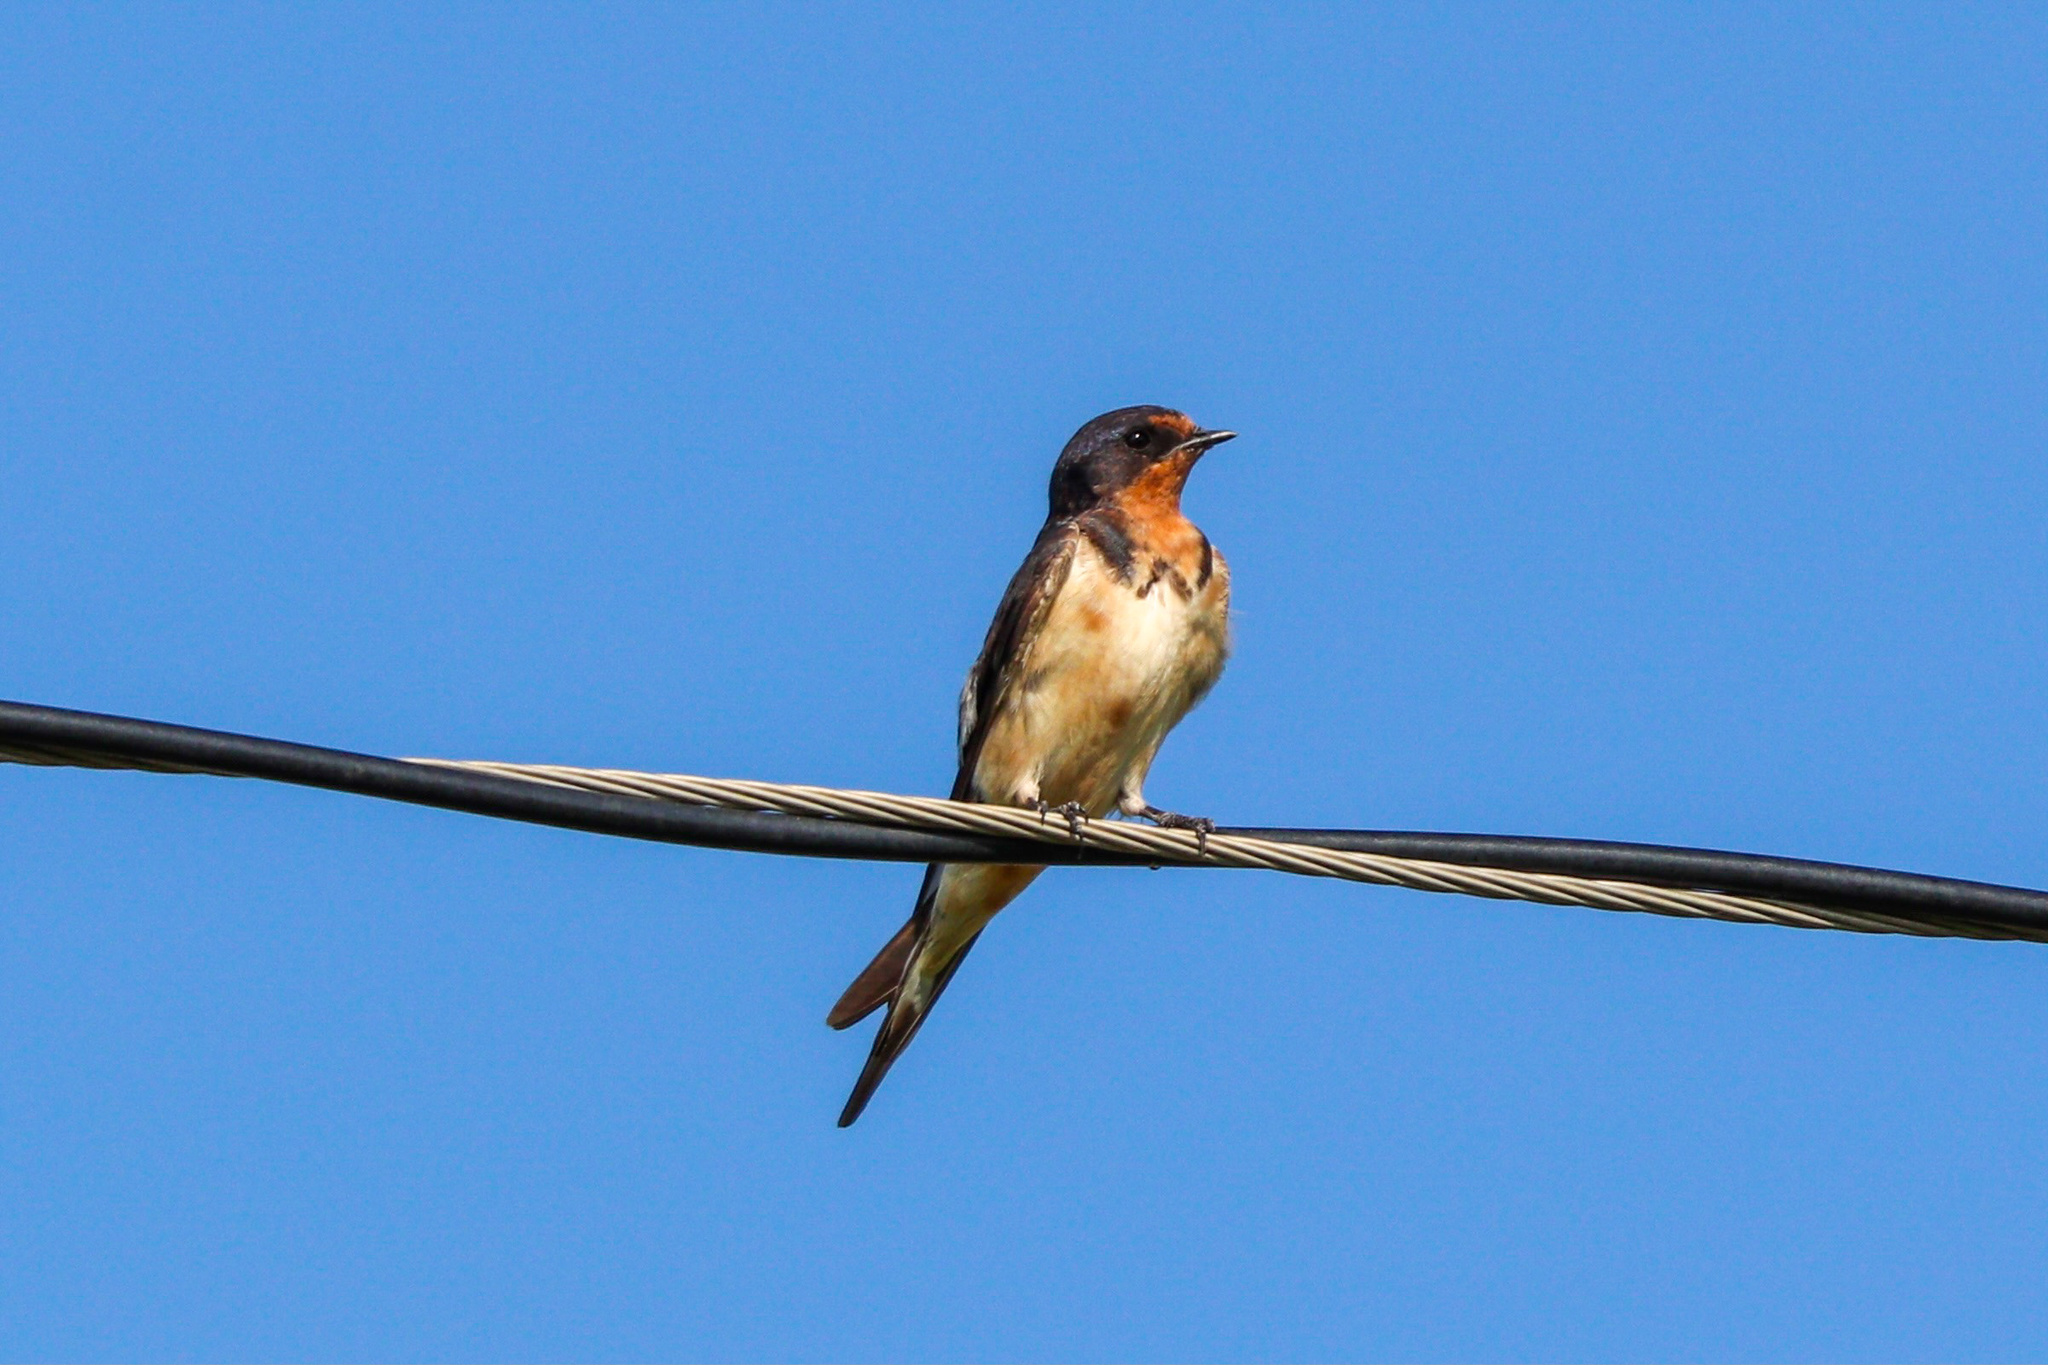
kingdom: Animalia
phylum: Chordata
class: Aves
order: Passeriformes
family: Hirundinidae
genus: Hirundo
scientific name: Hirundo rustica
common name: Barn swallow
